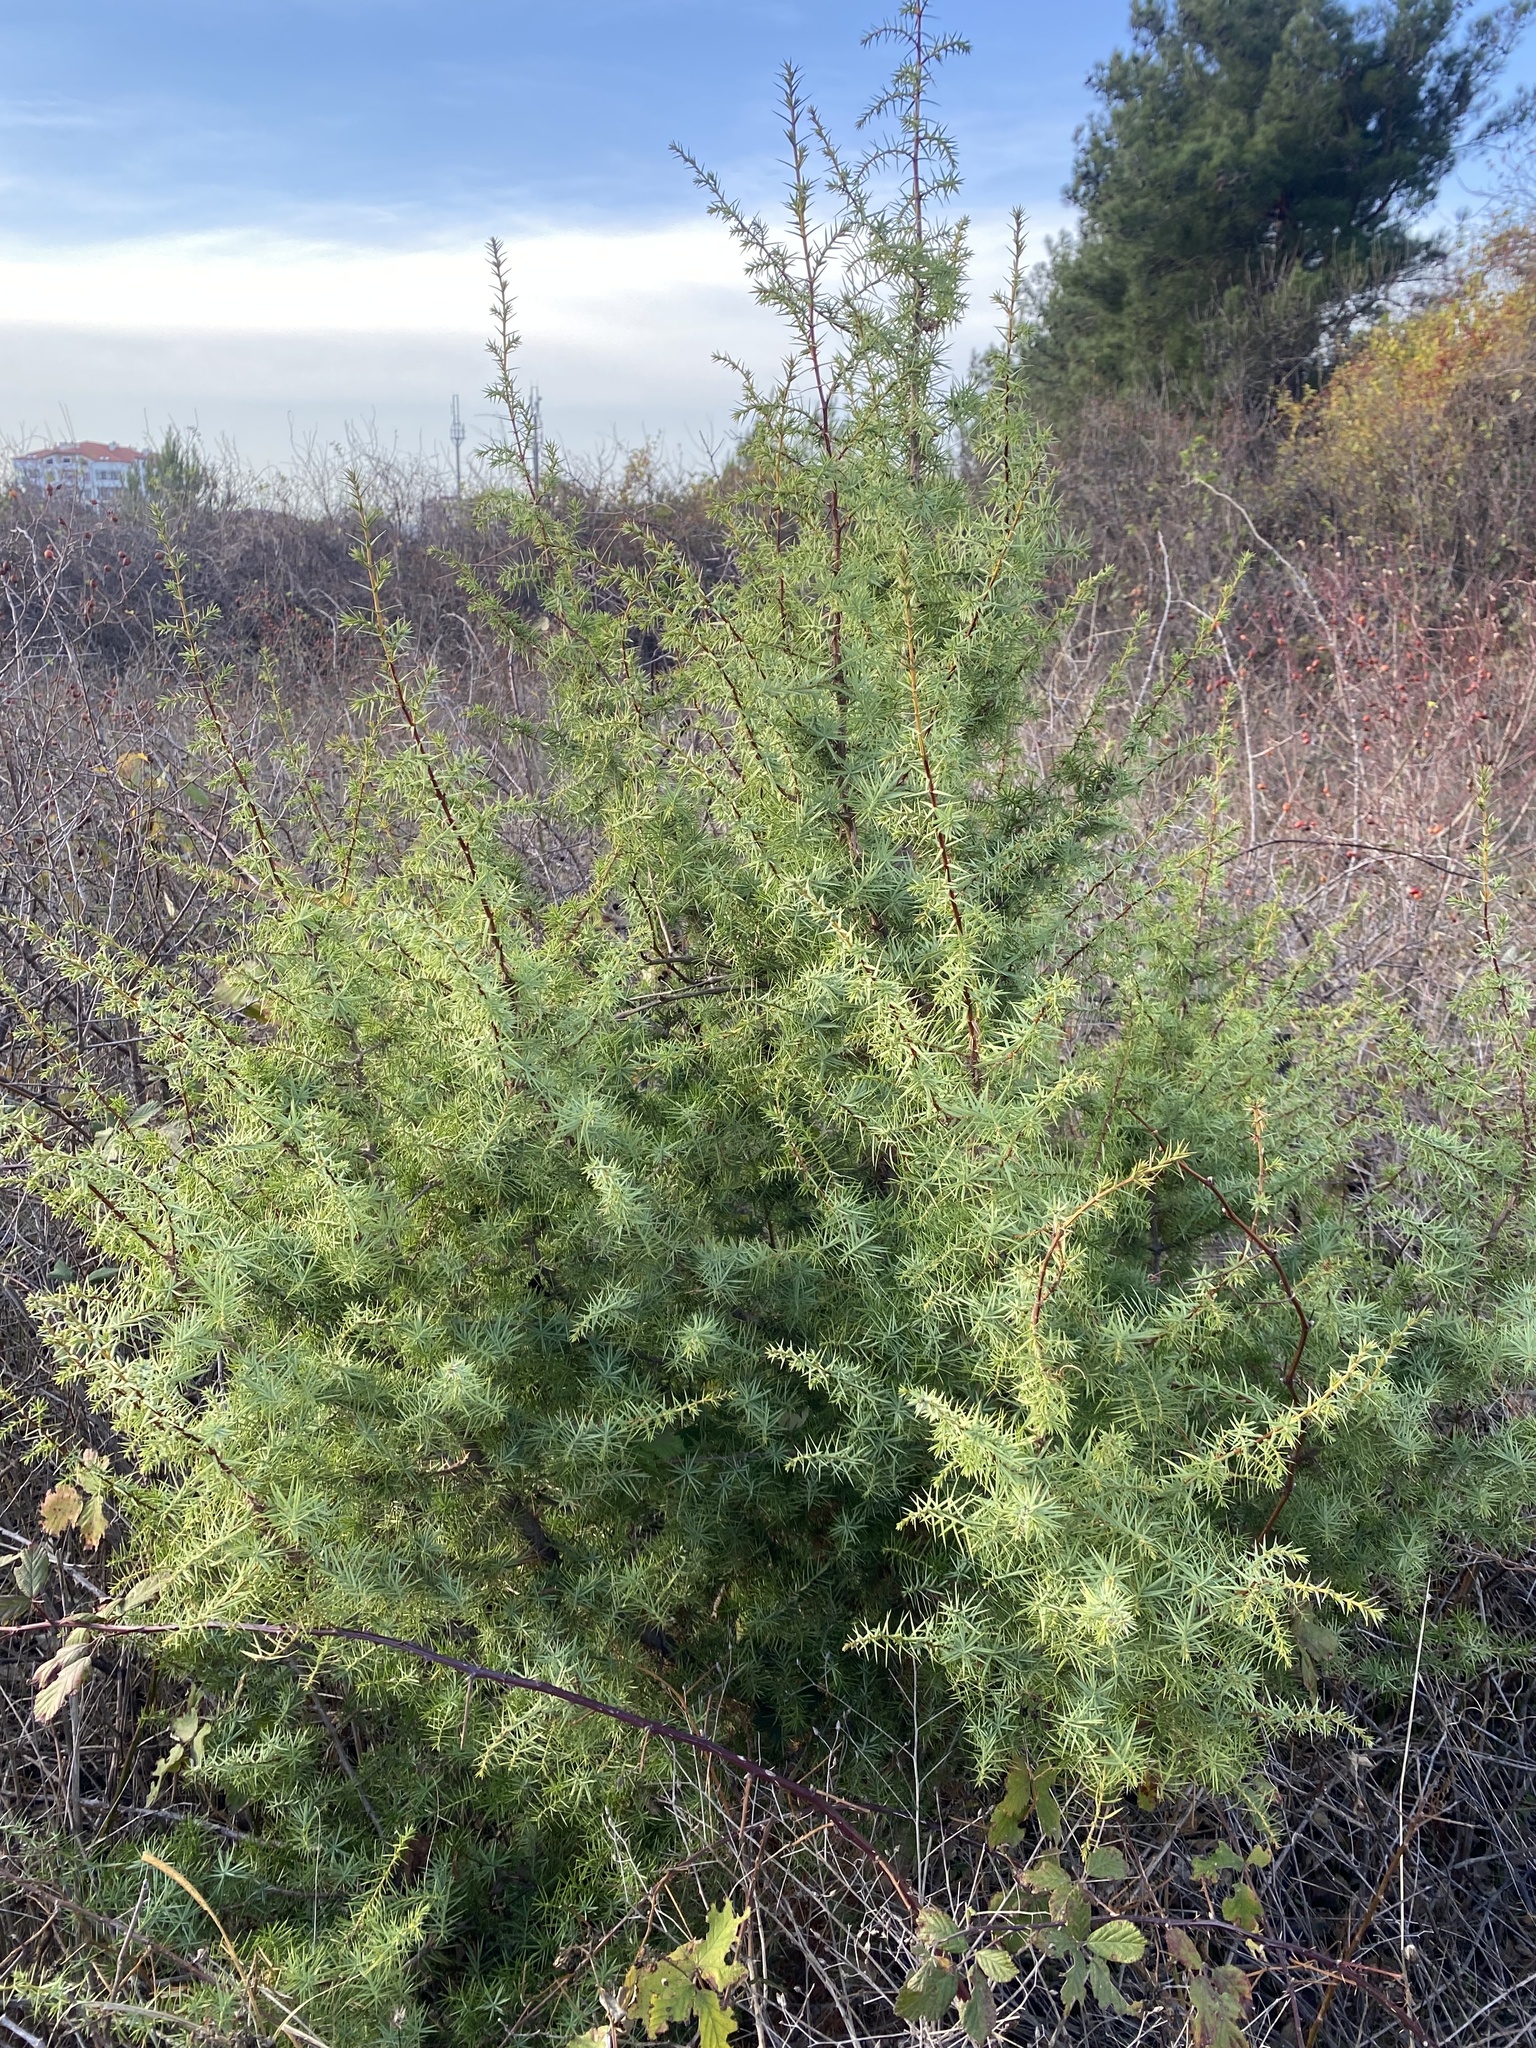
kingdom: Plantae
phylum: Tracheophyta
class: Pinopsida
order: Pinales
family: Cupressaceae
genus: Juniperus
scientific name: Juniperus oxycedrus
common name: Prickly juniper
